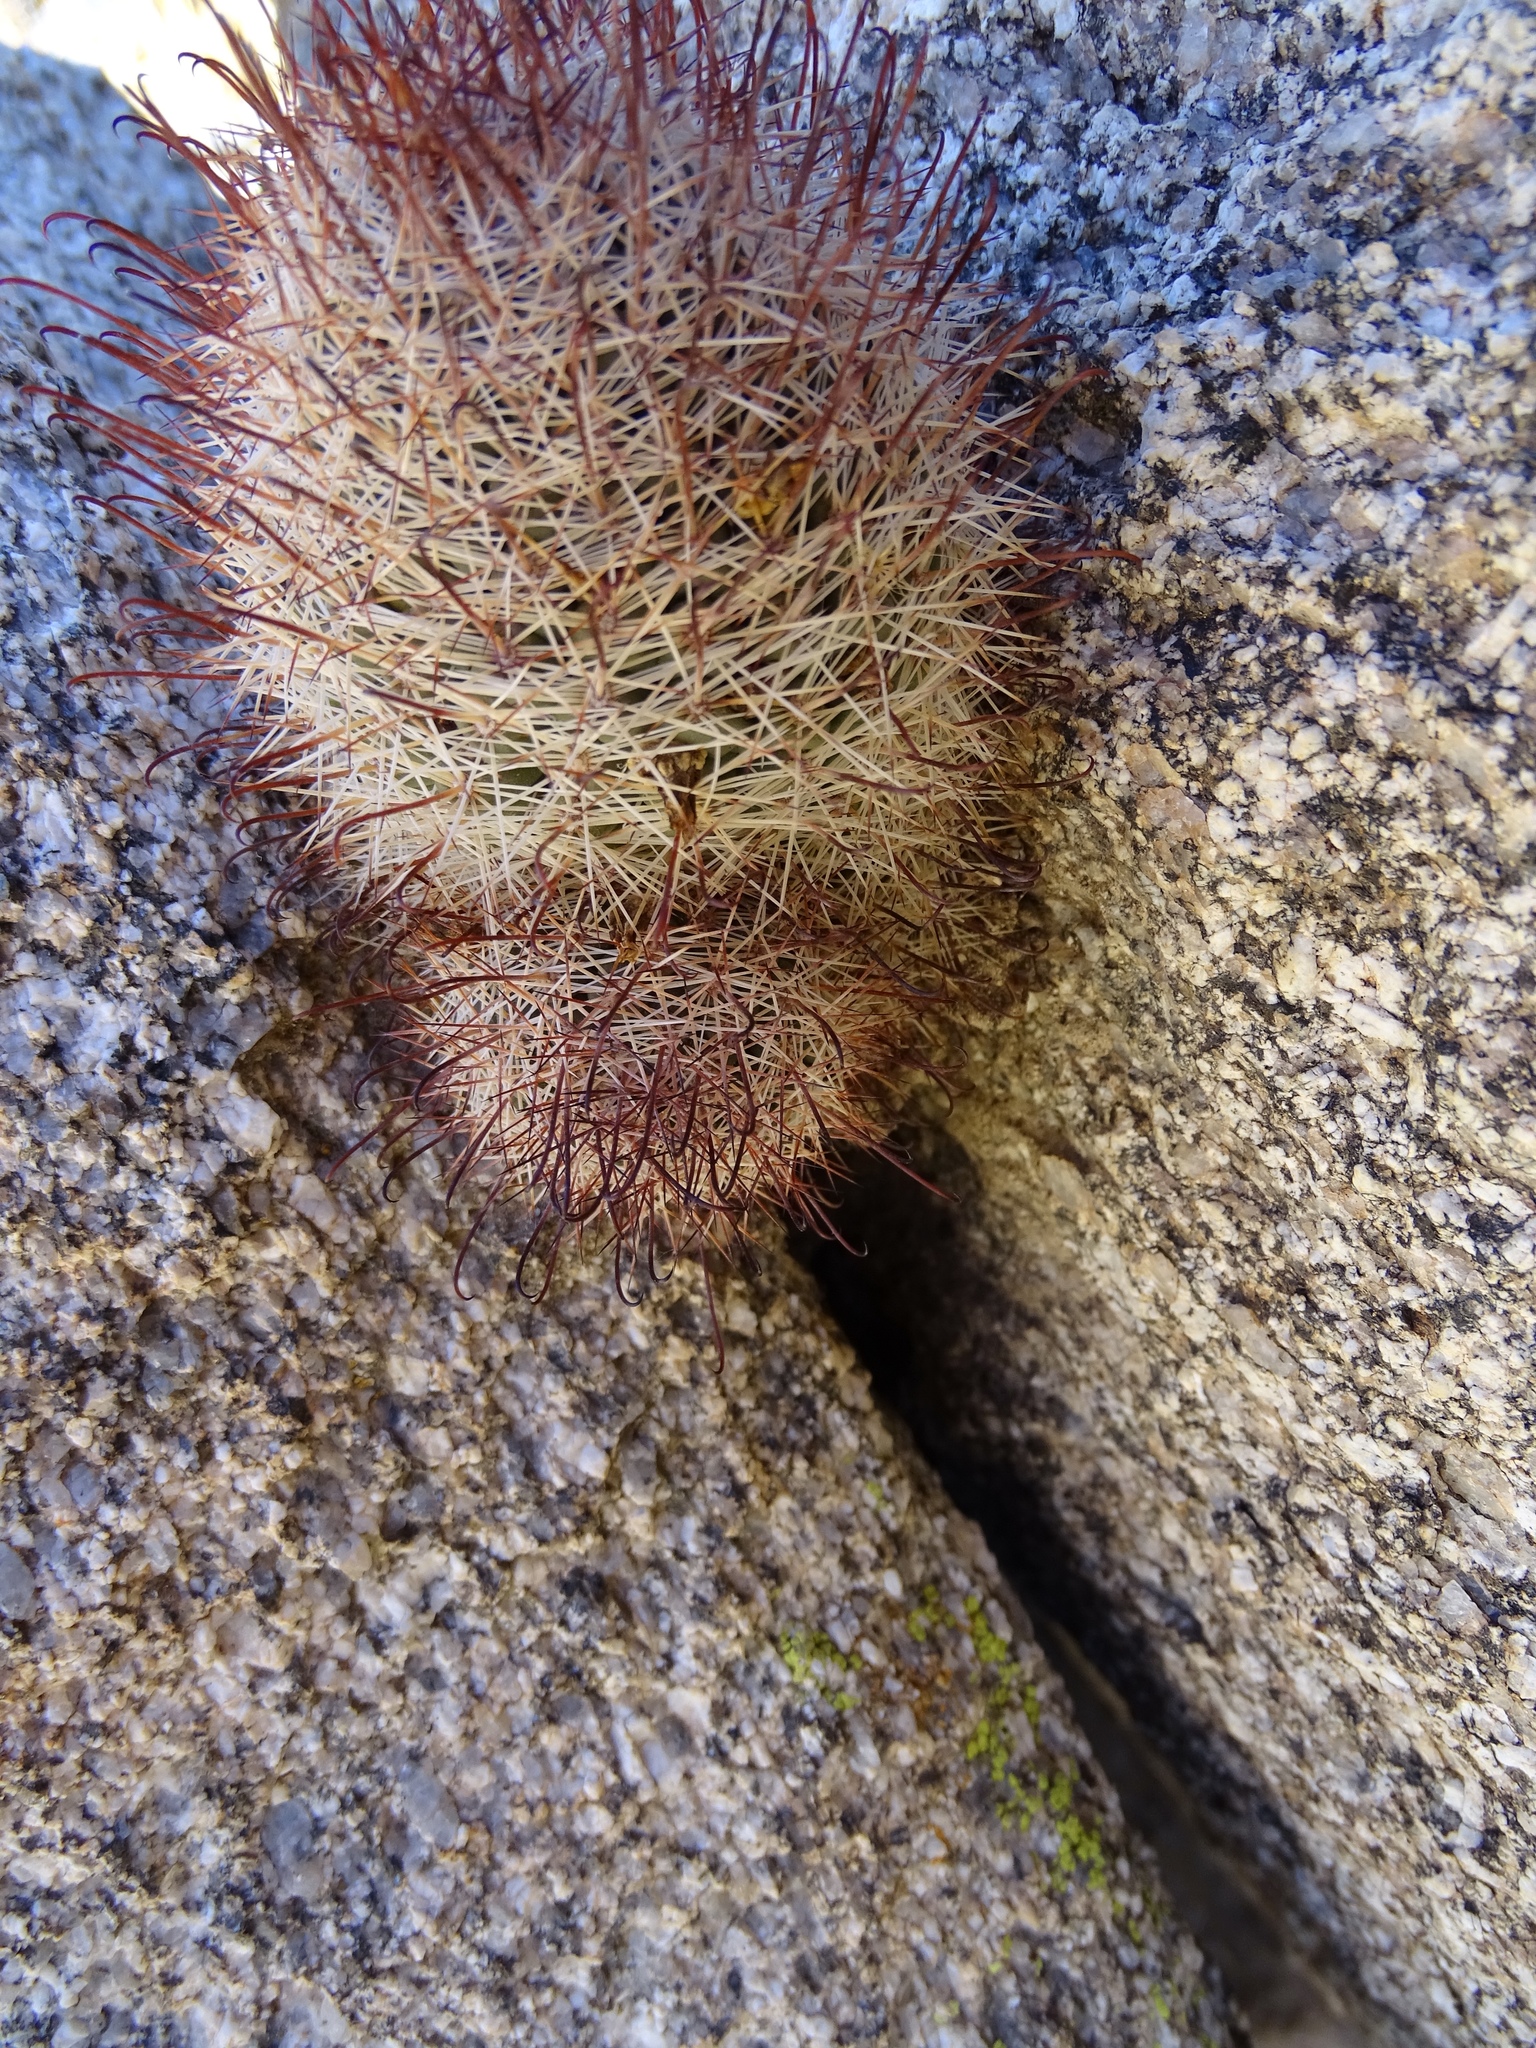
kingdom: Plantae
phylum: Tracheophyta
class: Magnoliopsida
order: Caryophyllales
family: Cactaceae
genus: Cochemiea
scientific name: Cochemiea dioica
